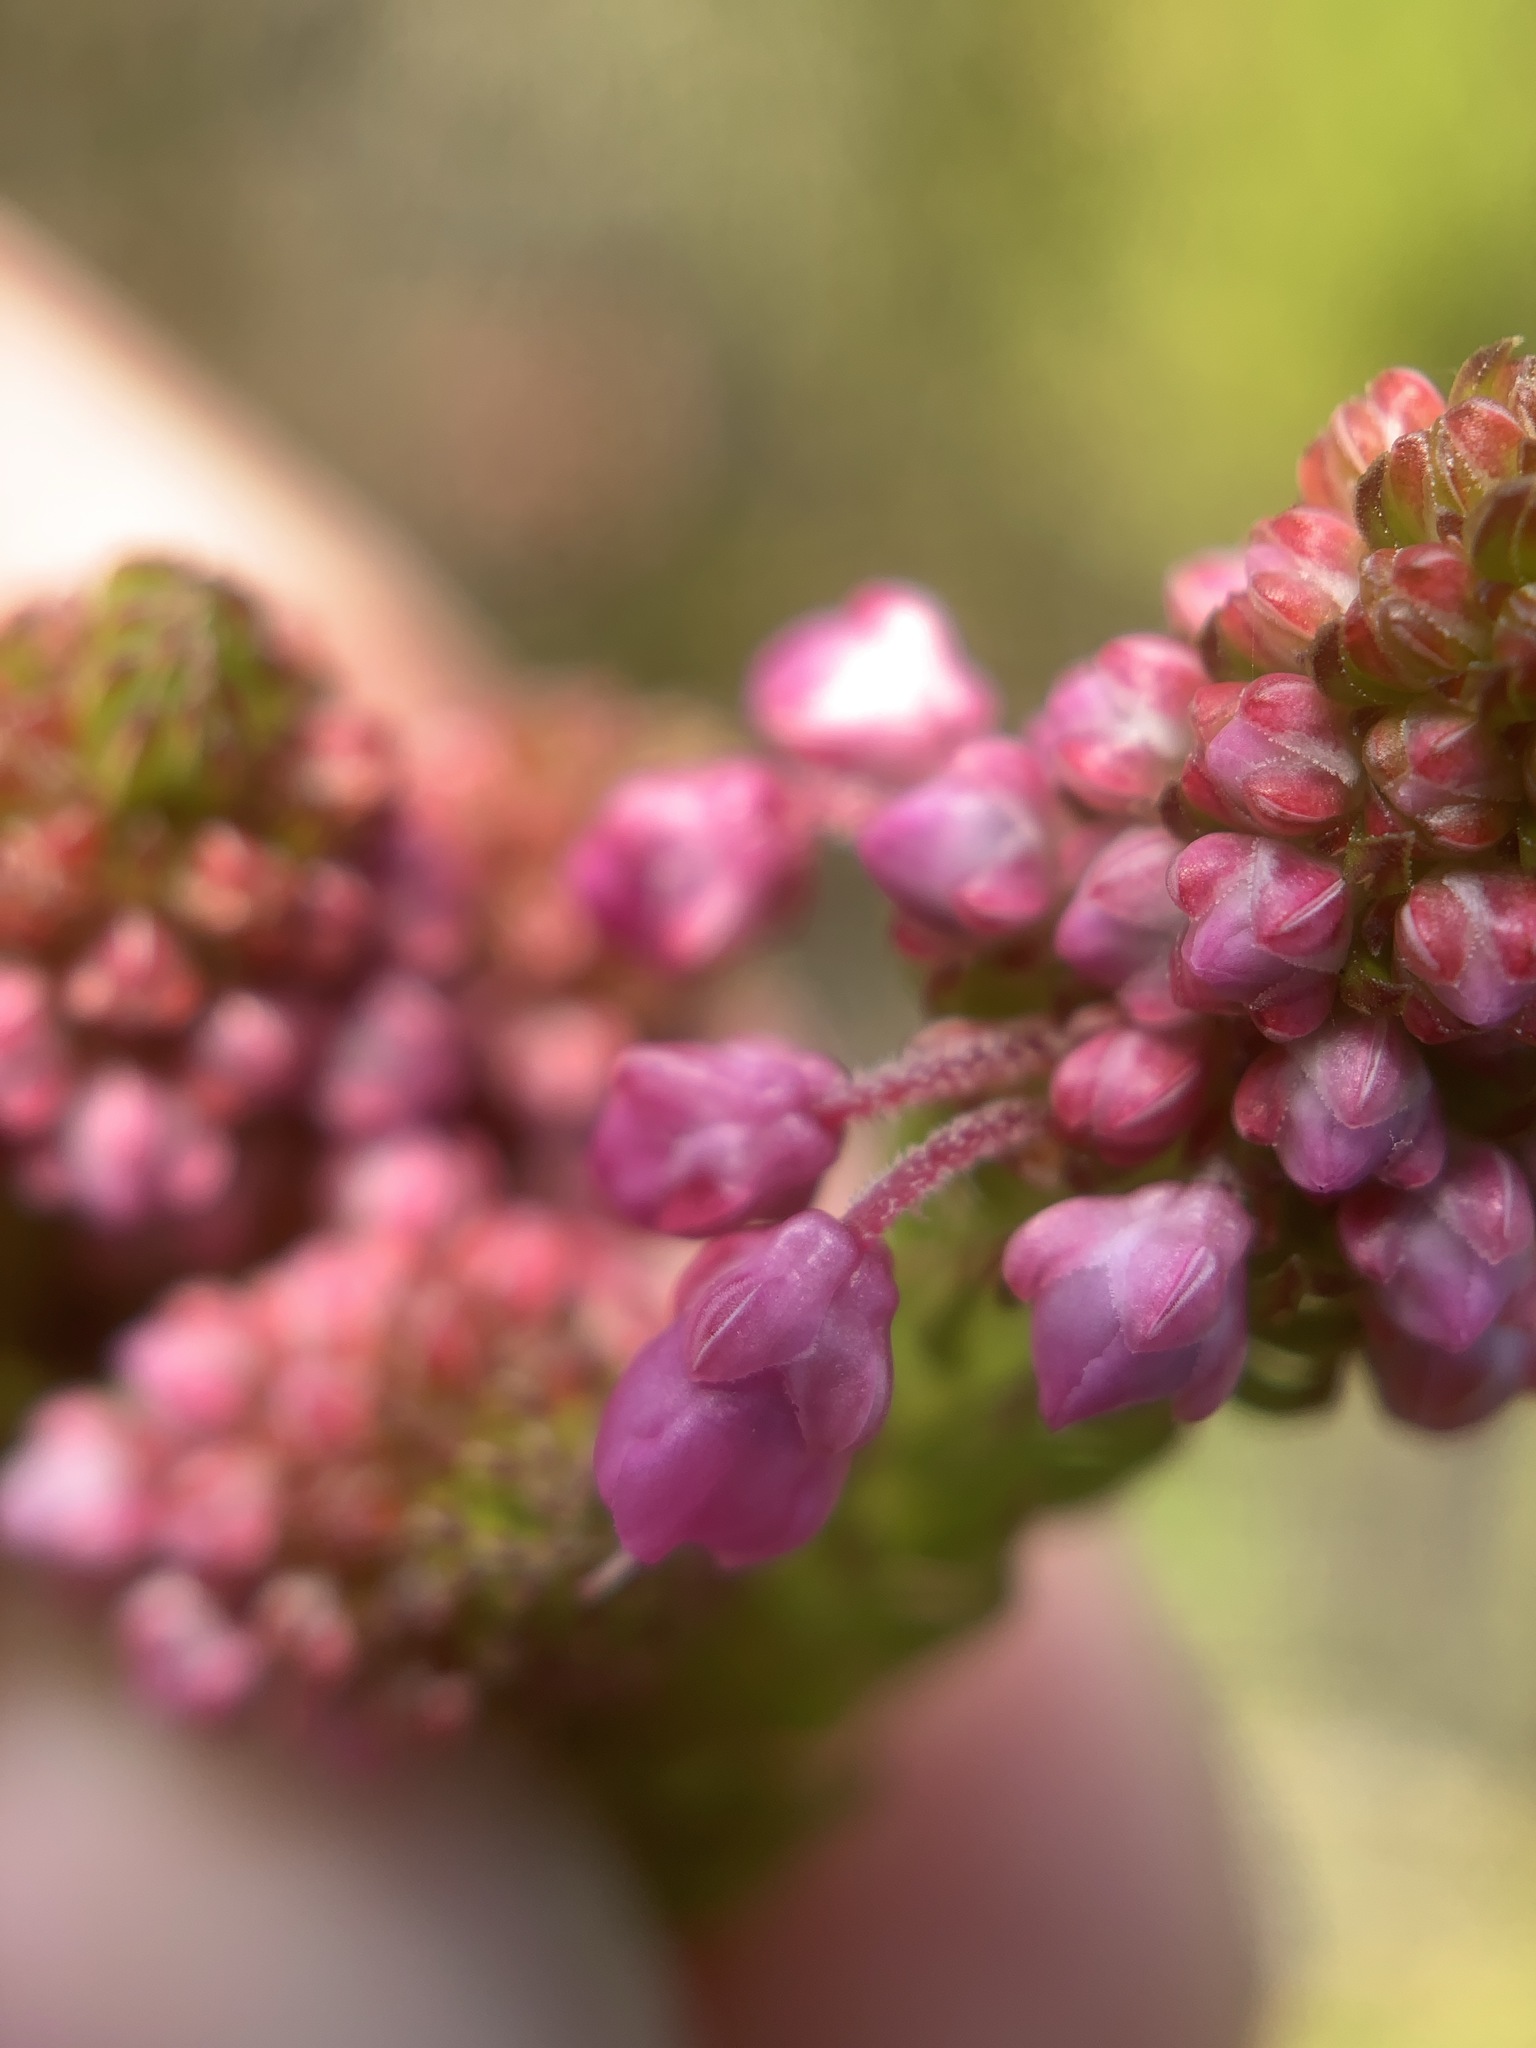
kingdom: Plantae
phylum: Tracheophyta
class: Magnoliopsida
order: Ericales
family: Ericaceae
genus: Erica
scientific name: Erica seriphiifolia
